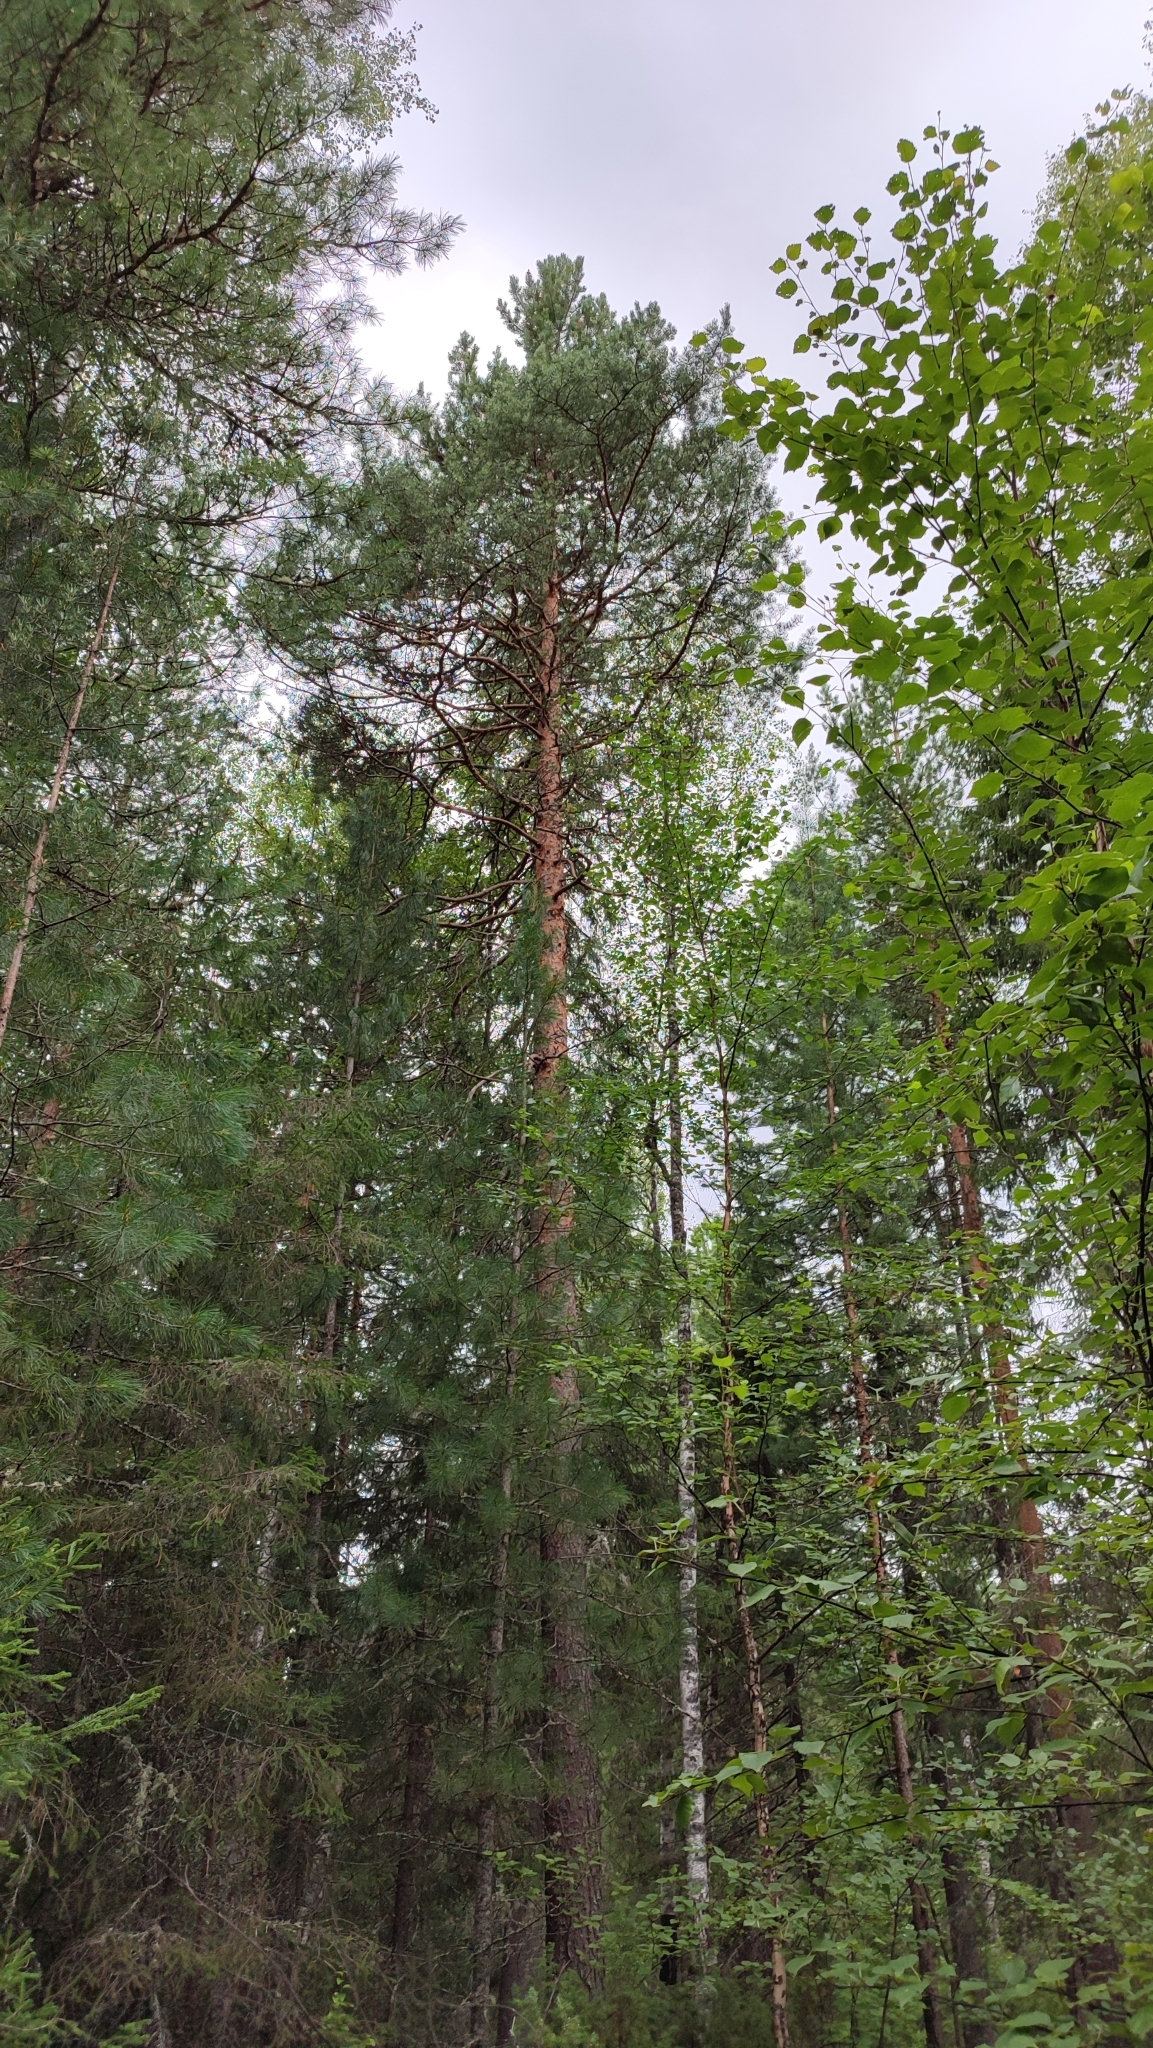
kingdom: Plantae
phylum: Tracheophyta
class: Pinopsida
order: Pinales
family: Pinaceae
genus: Pinus
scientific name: Pinus sylvestris
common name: Scots pine
